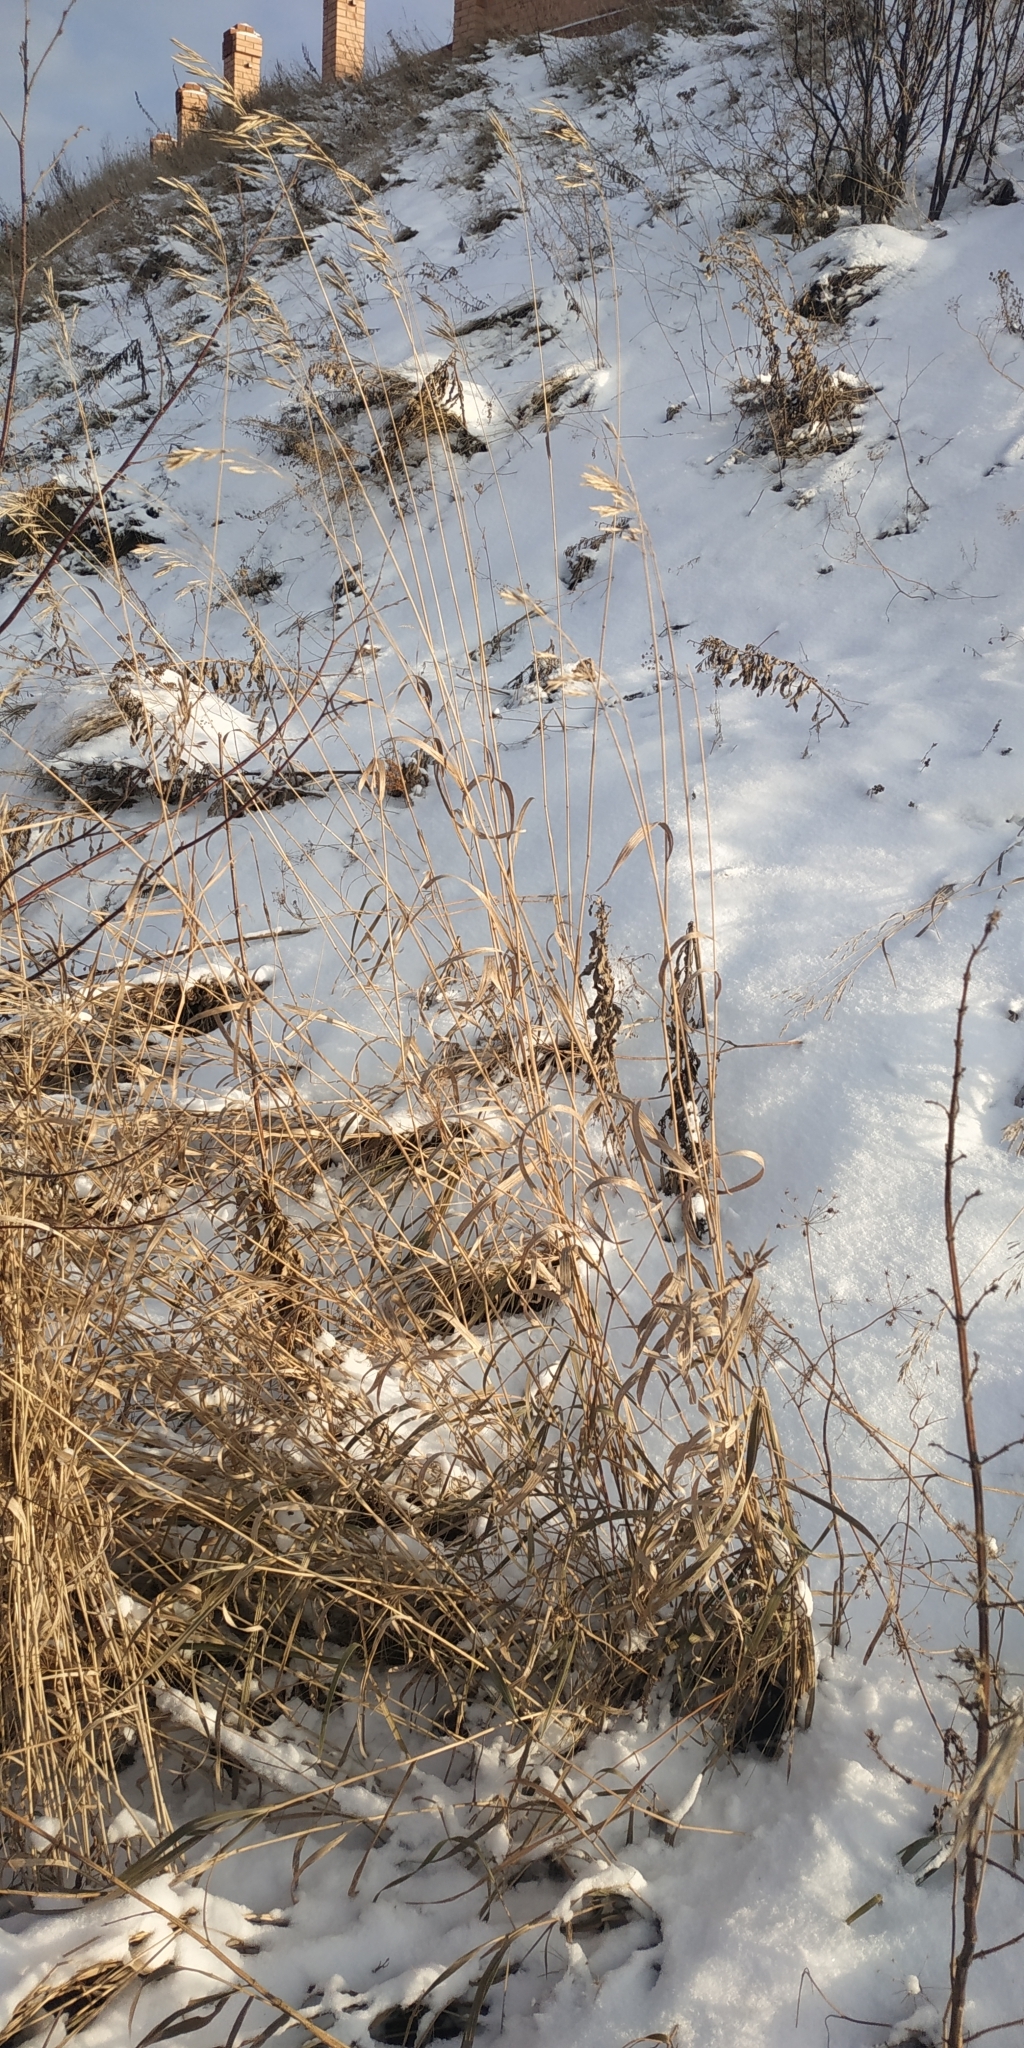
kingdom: Plantae
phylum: Tracheophyta
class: Liliopsida
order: Poales
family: Poaceae
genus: Bromus
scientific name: Bromus inermis
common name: Smooth brome
